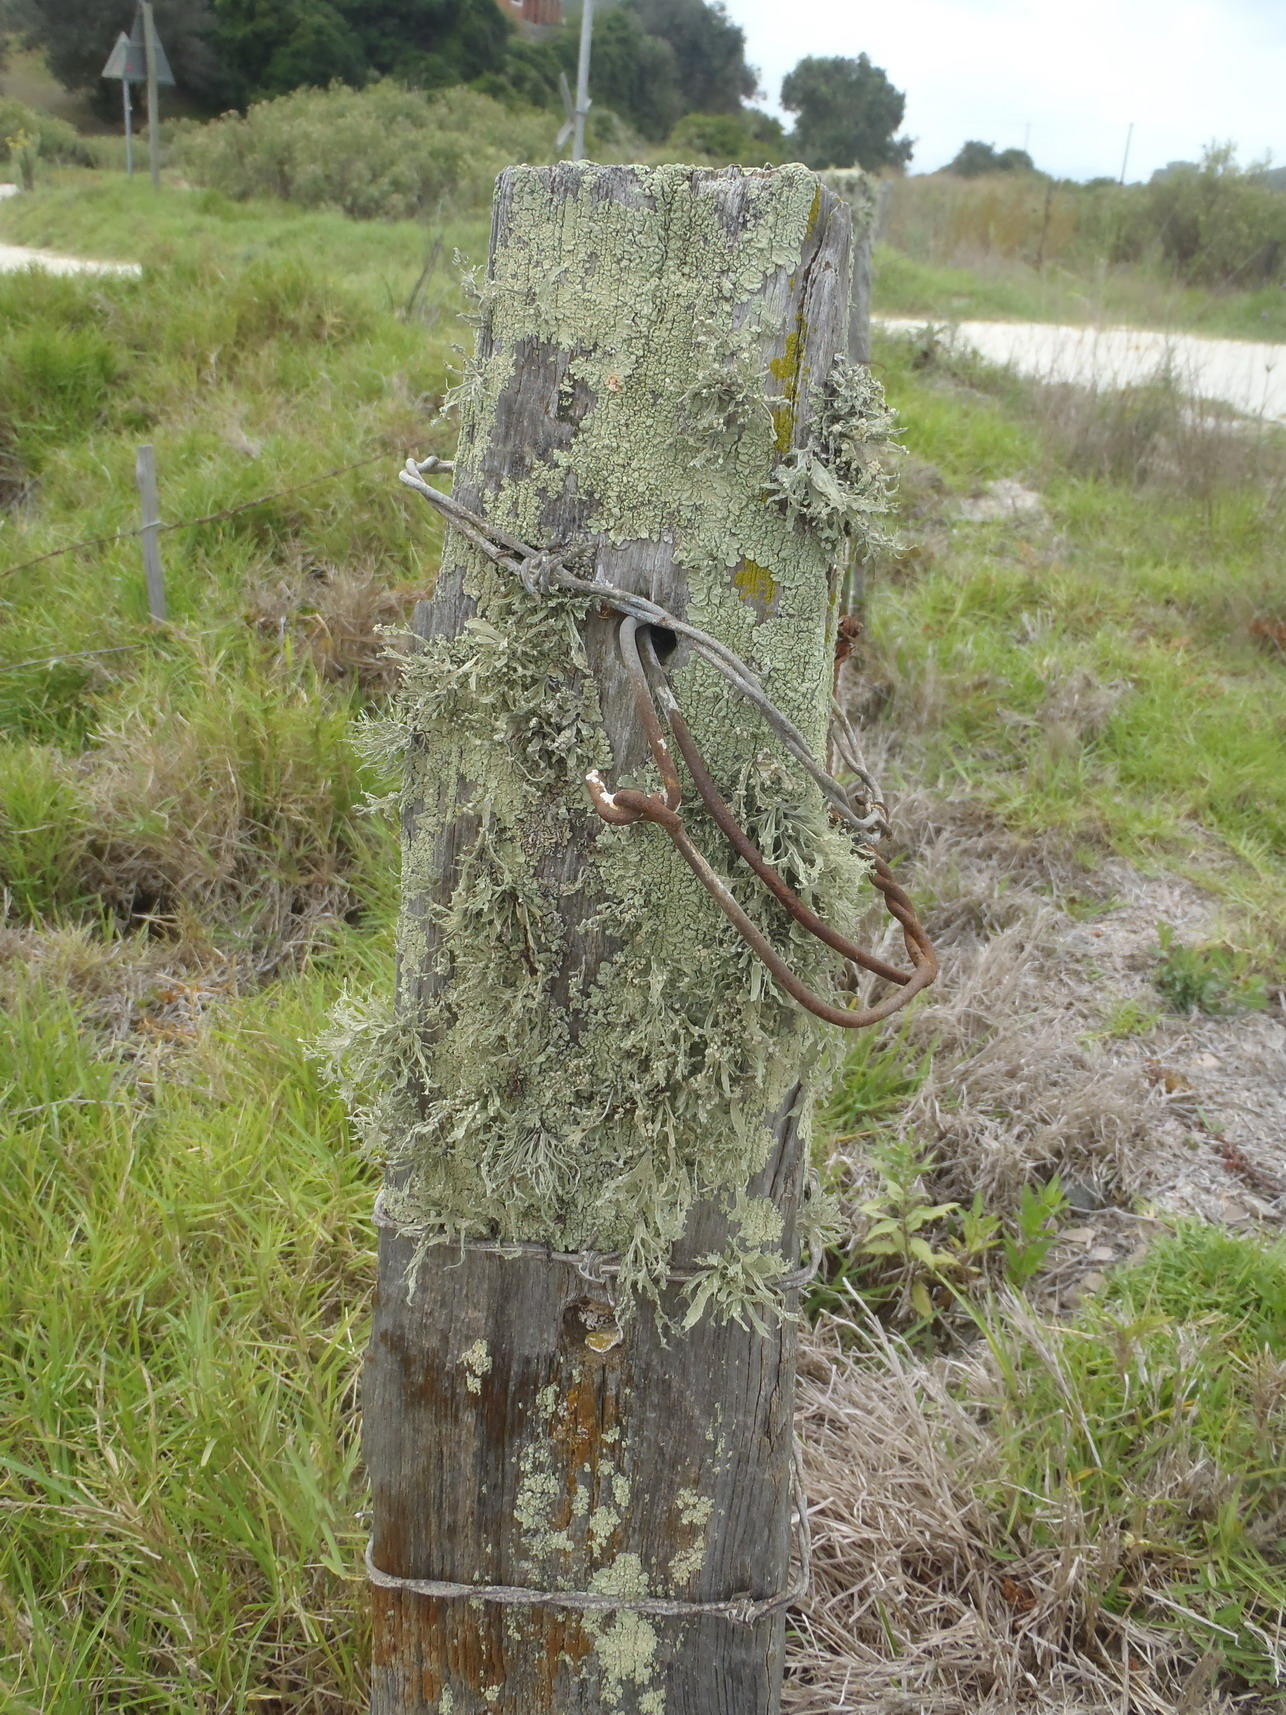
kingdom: Fungi
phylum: Ascomycota
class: Lecanoromycetes
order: Lecanorales
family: Ramalinaceae
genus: Ramalina
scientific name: Ramalina celastri
